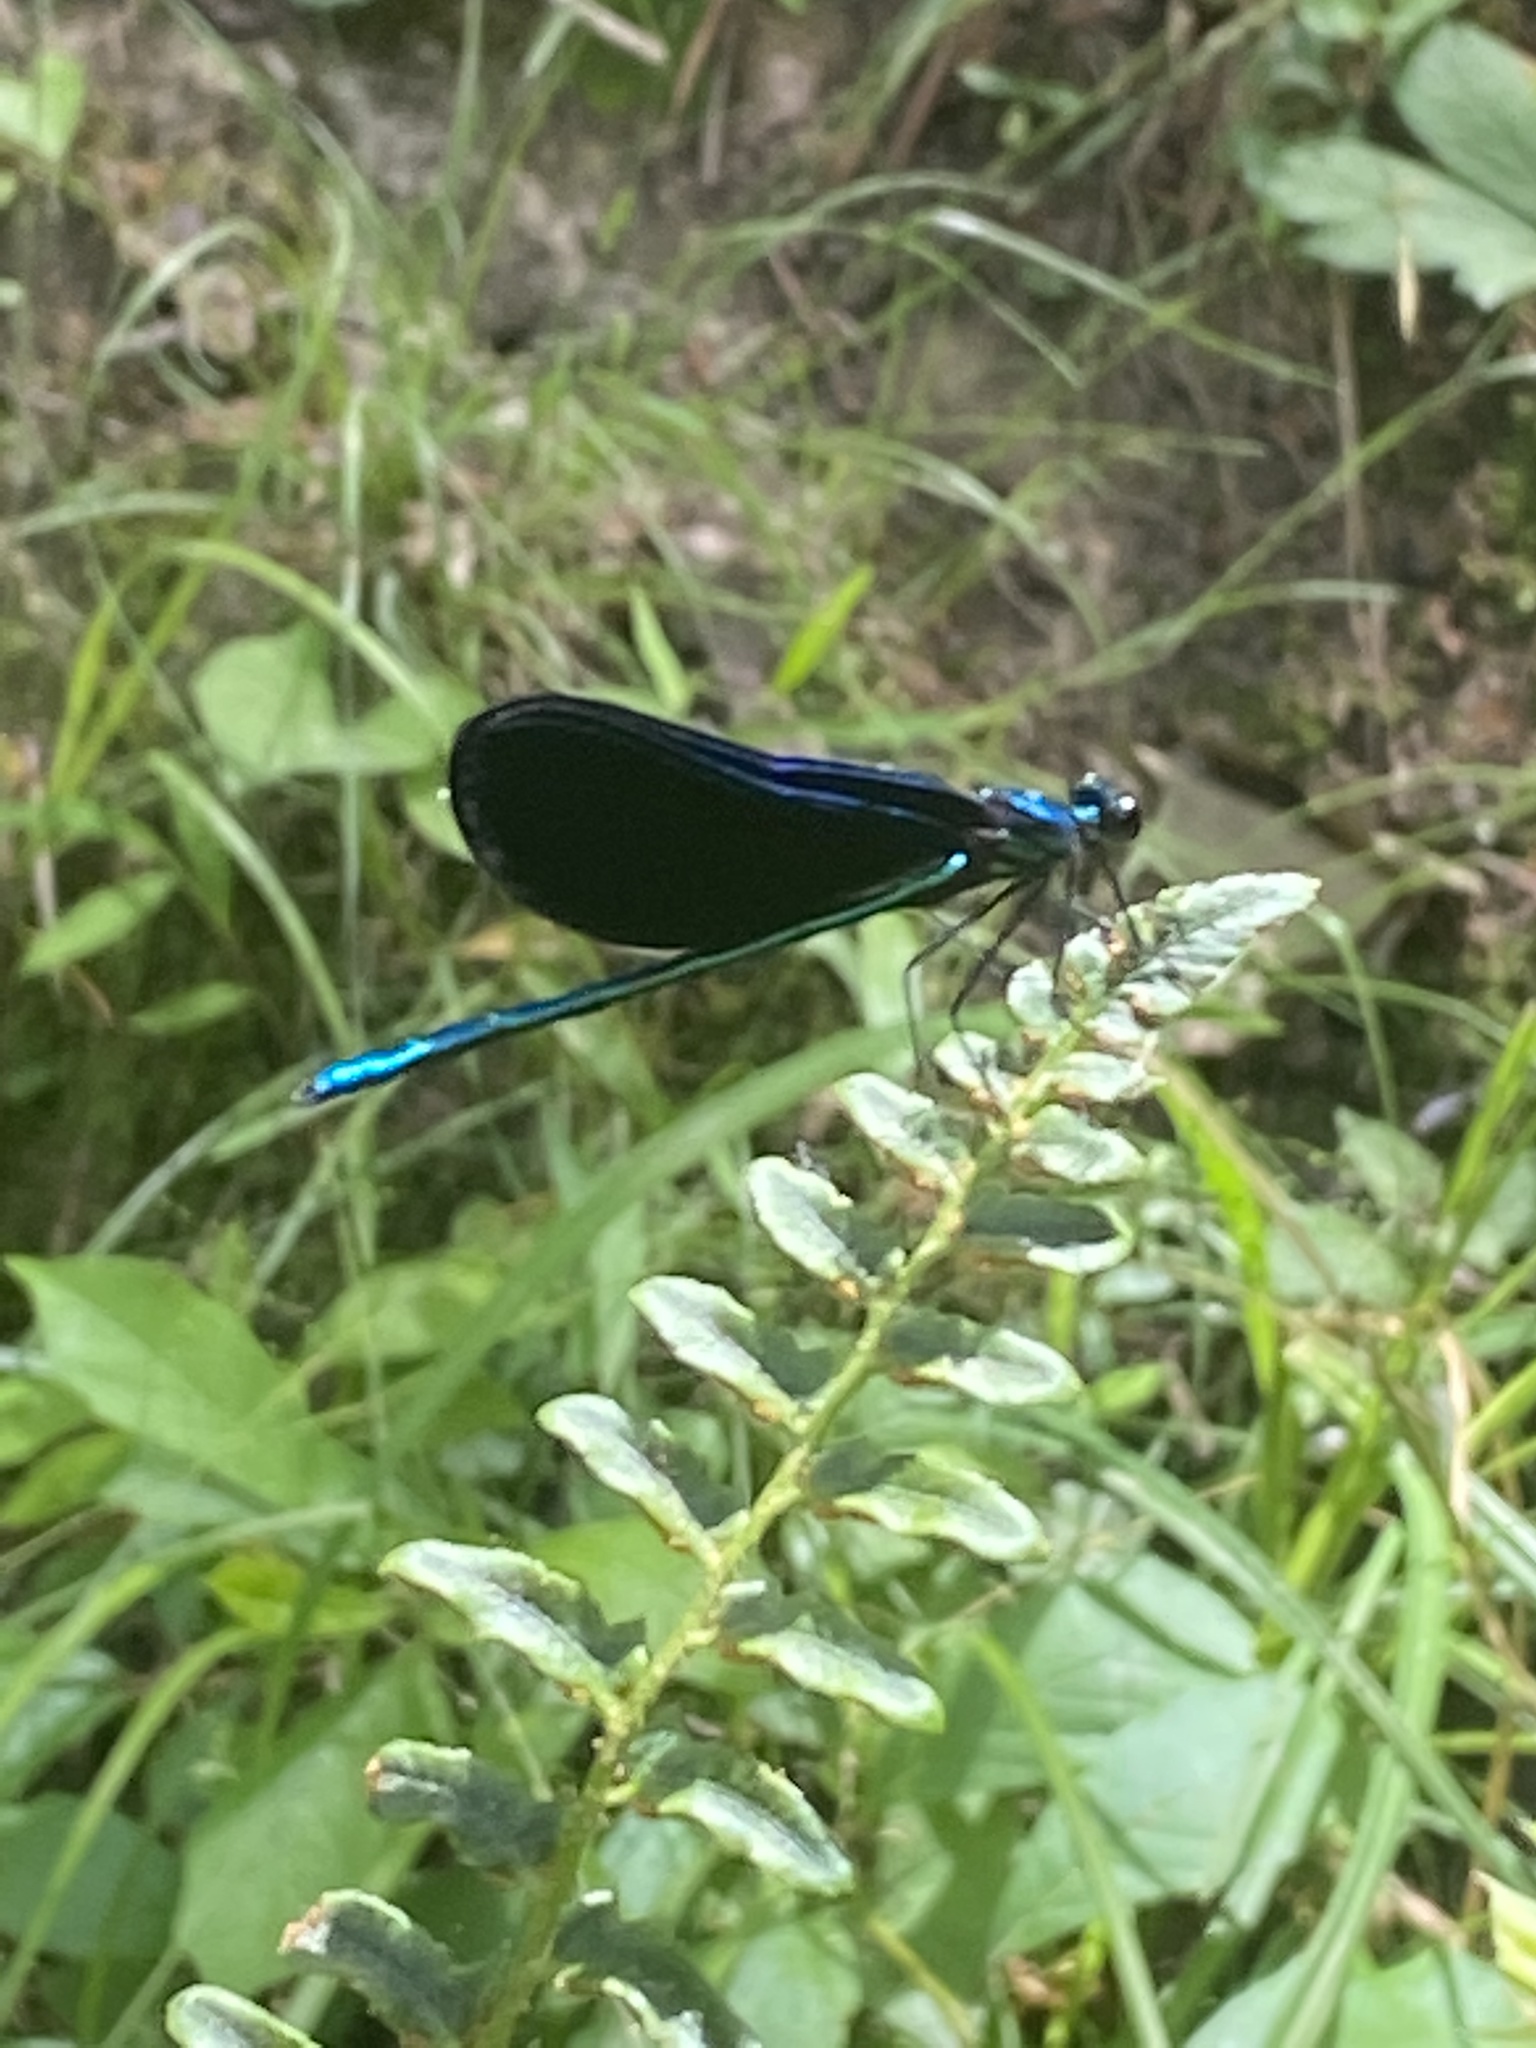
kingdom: Animalia
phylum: Arthropoda
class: Insecta
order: Odonata
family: Calopterygidae
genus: Calopteryx
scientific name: Calopteryx maculata
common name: Ebony jewelwing
